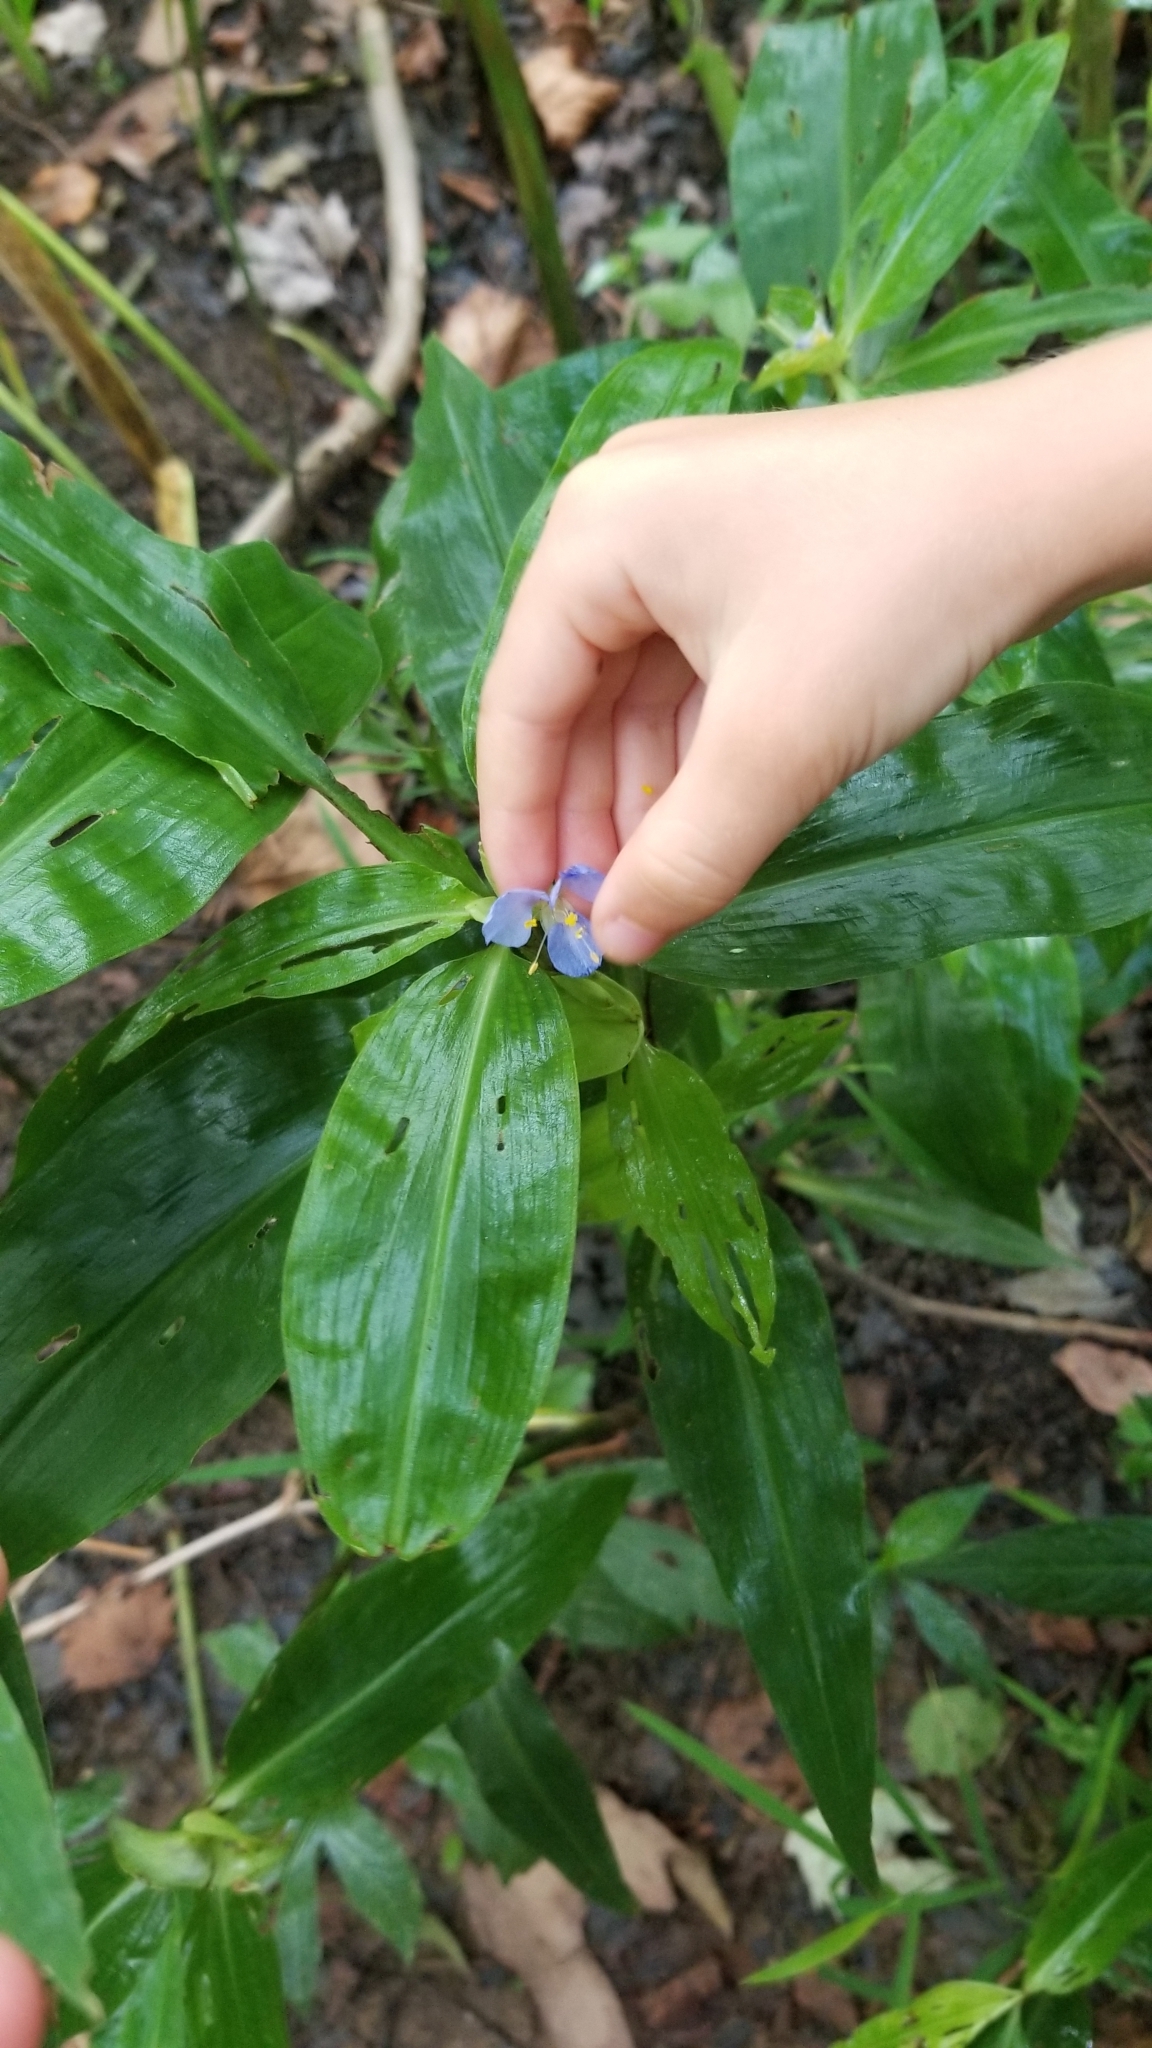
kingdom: Plantae
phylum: Tracheophyta
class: Liliopsida
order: Commelinales
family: Commelinaceae
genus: Commelina
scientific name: Commelina virginica
